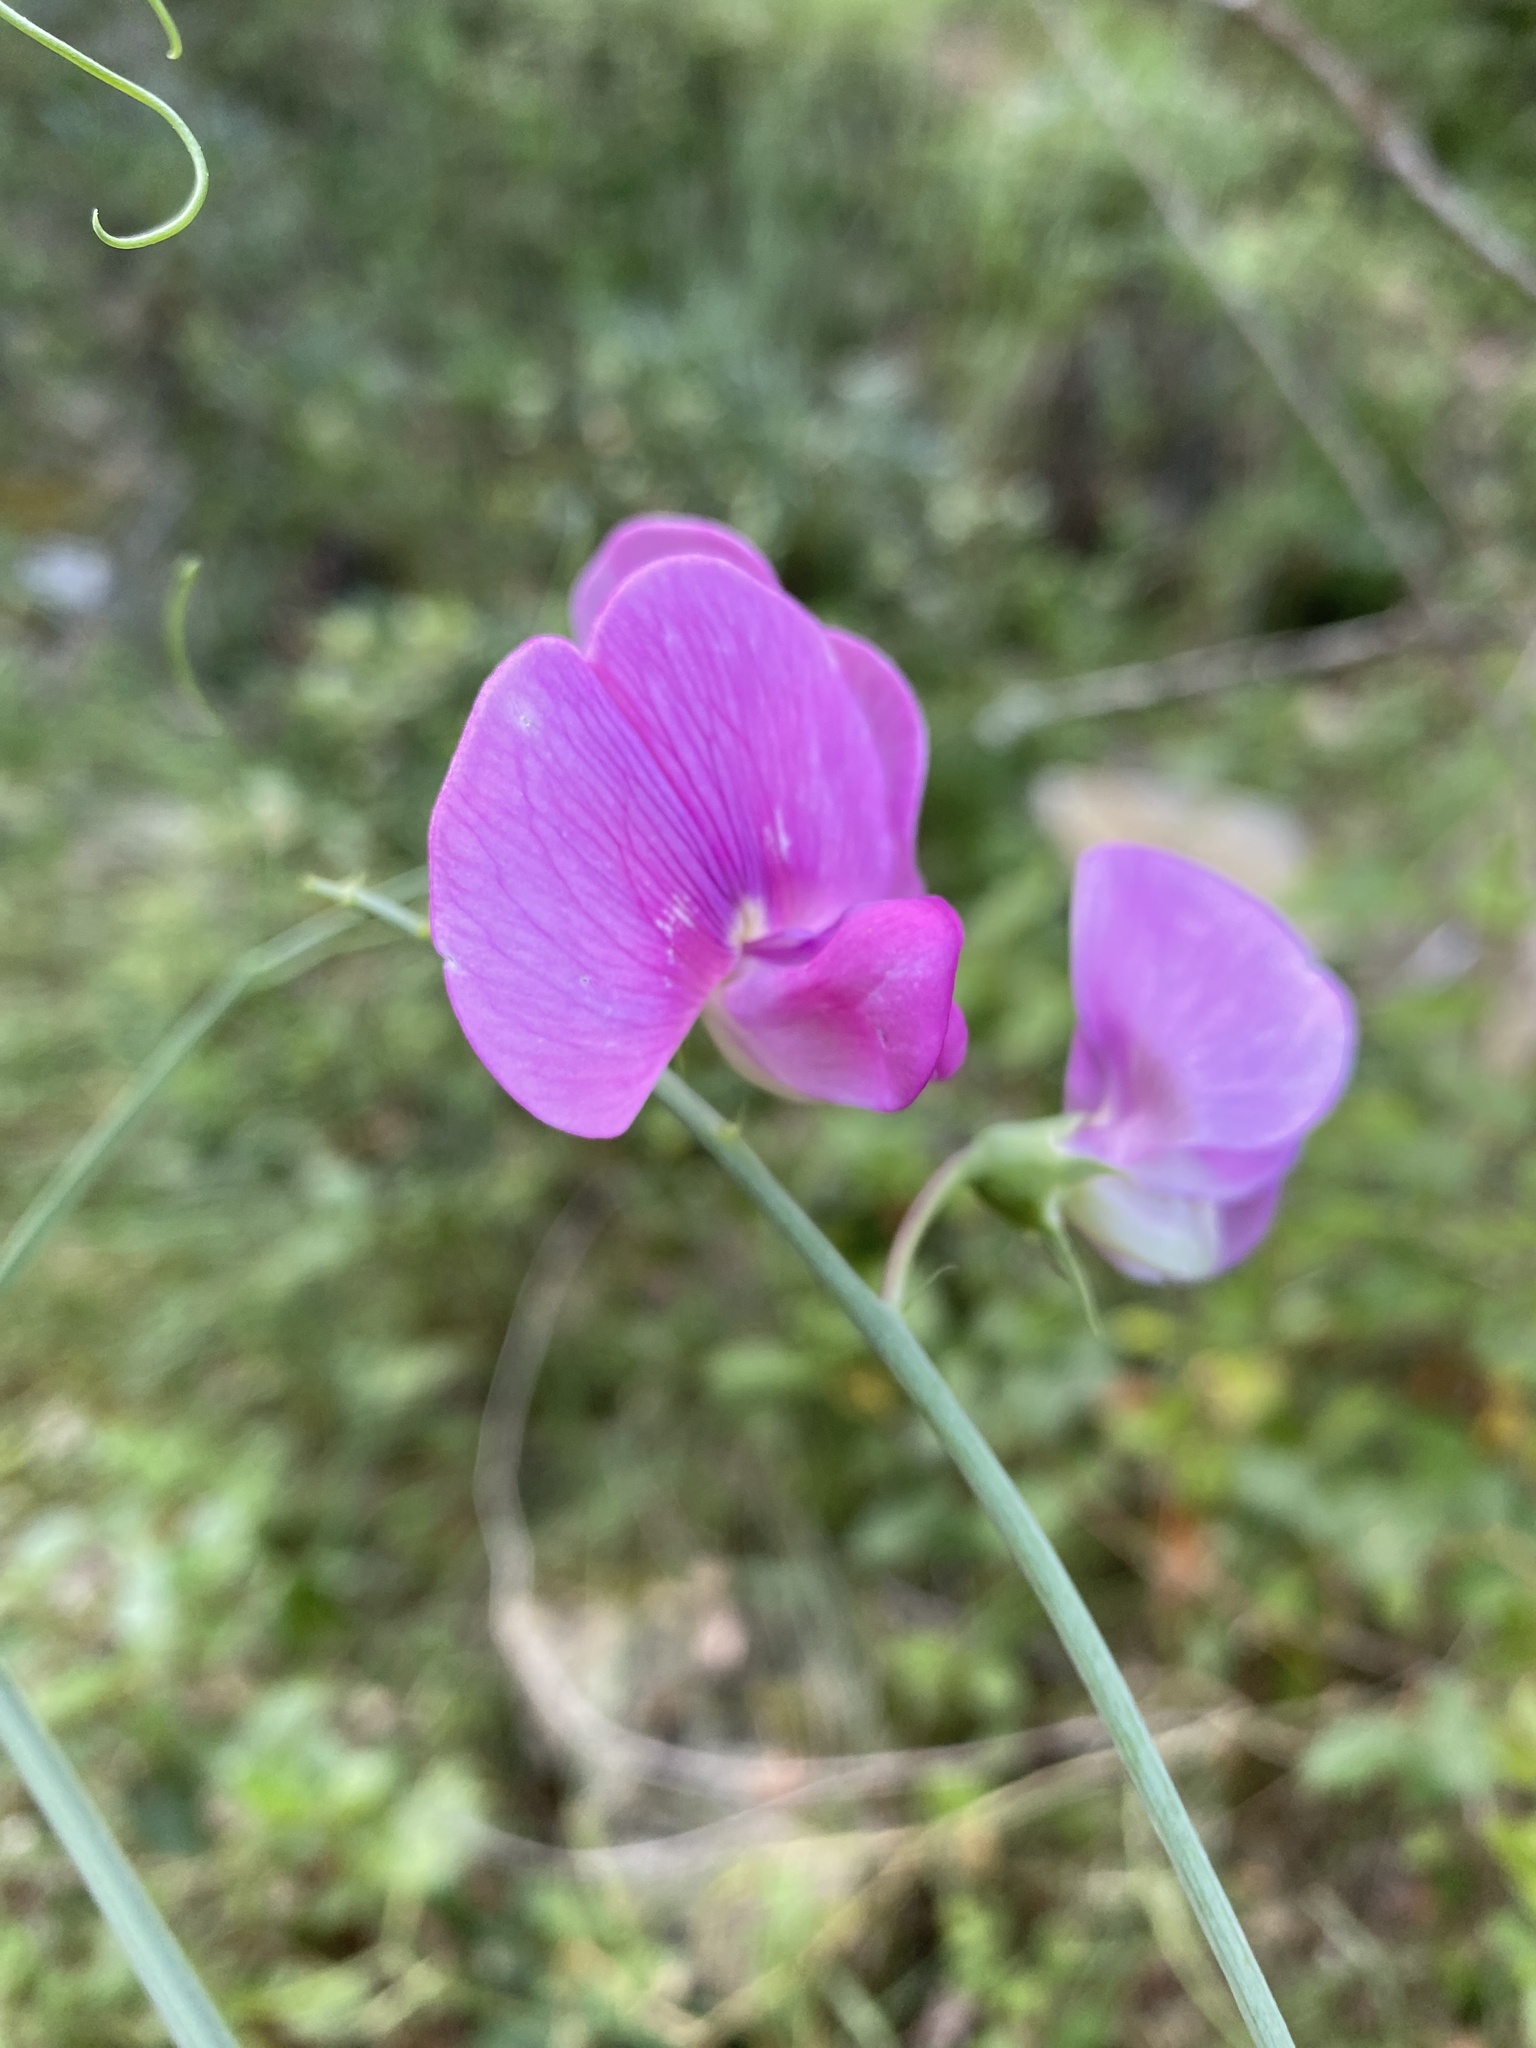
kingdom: Plantae
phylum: Tracheophyta
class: Magnoliopsida
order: Fabales
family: Fabaceae
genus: Lathyrus
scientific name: Lathyrus latifolius
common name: Perennial pea
